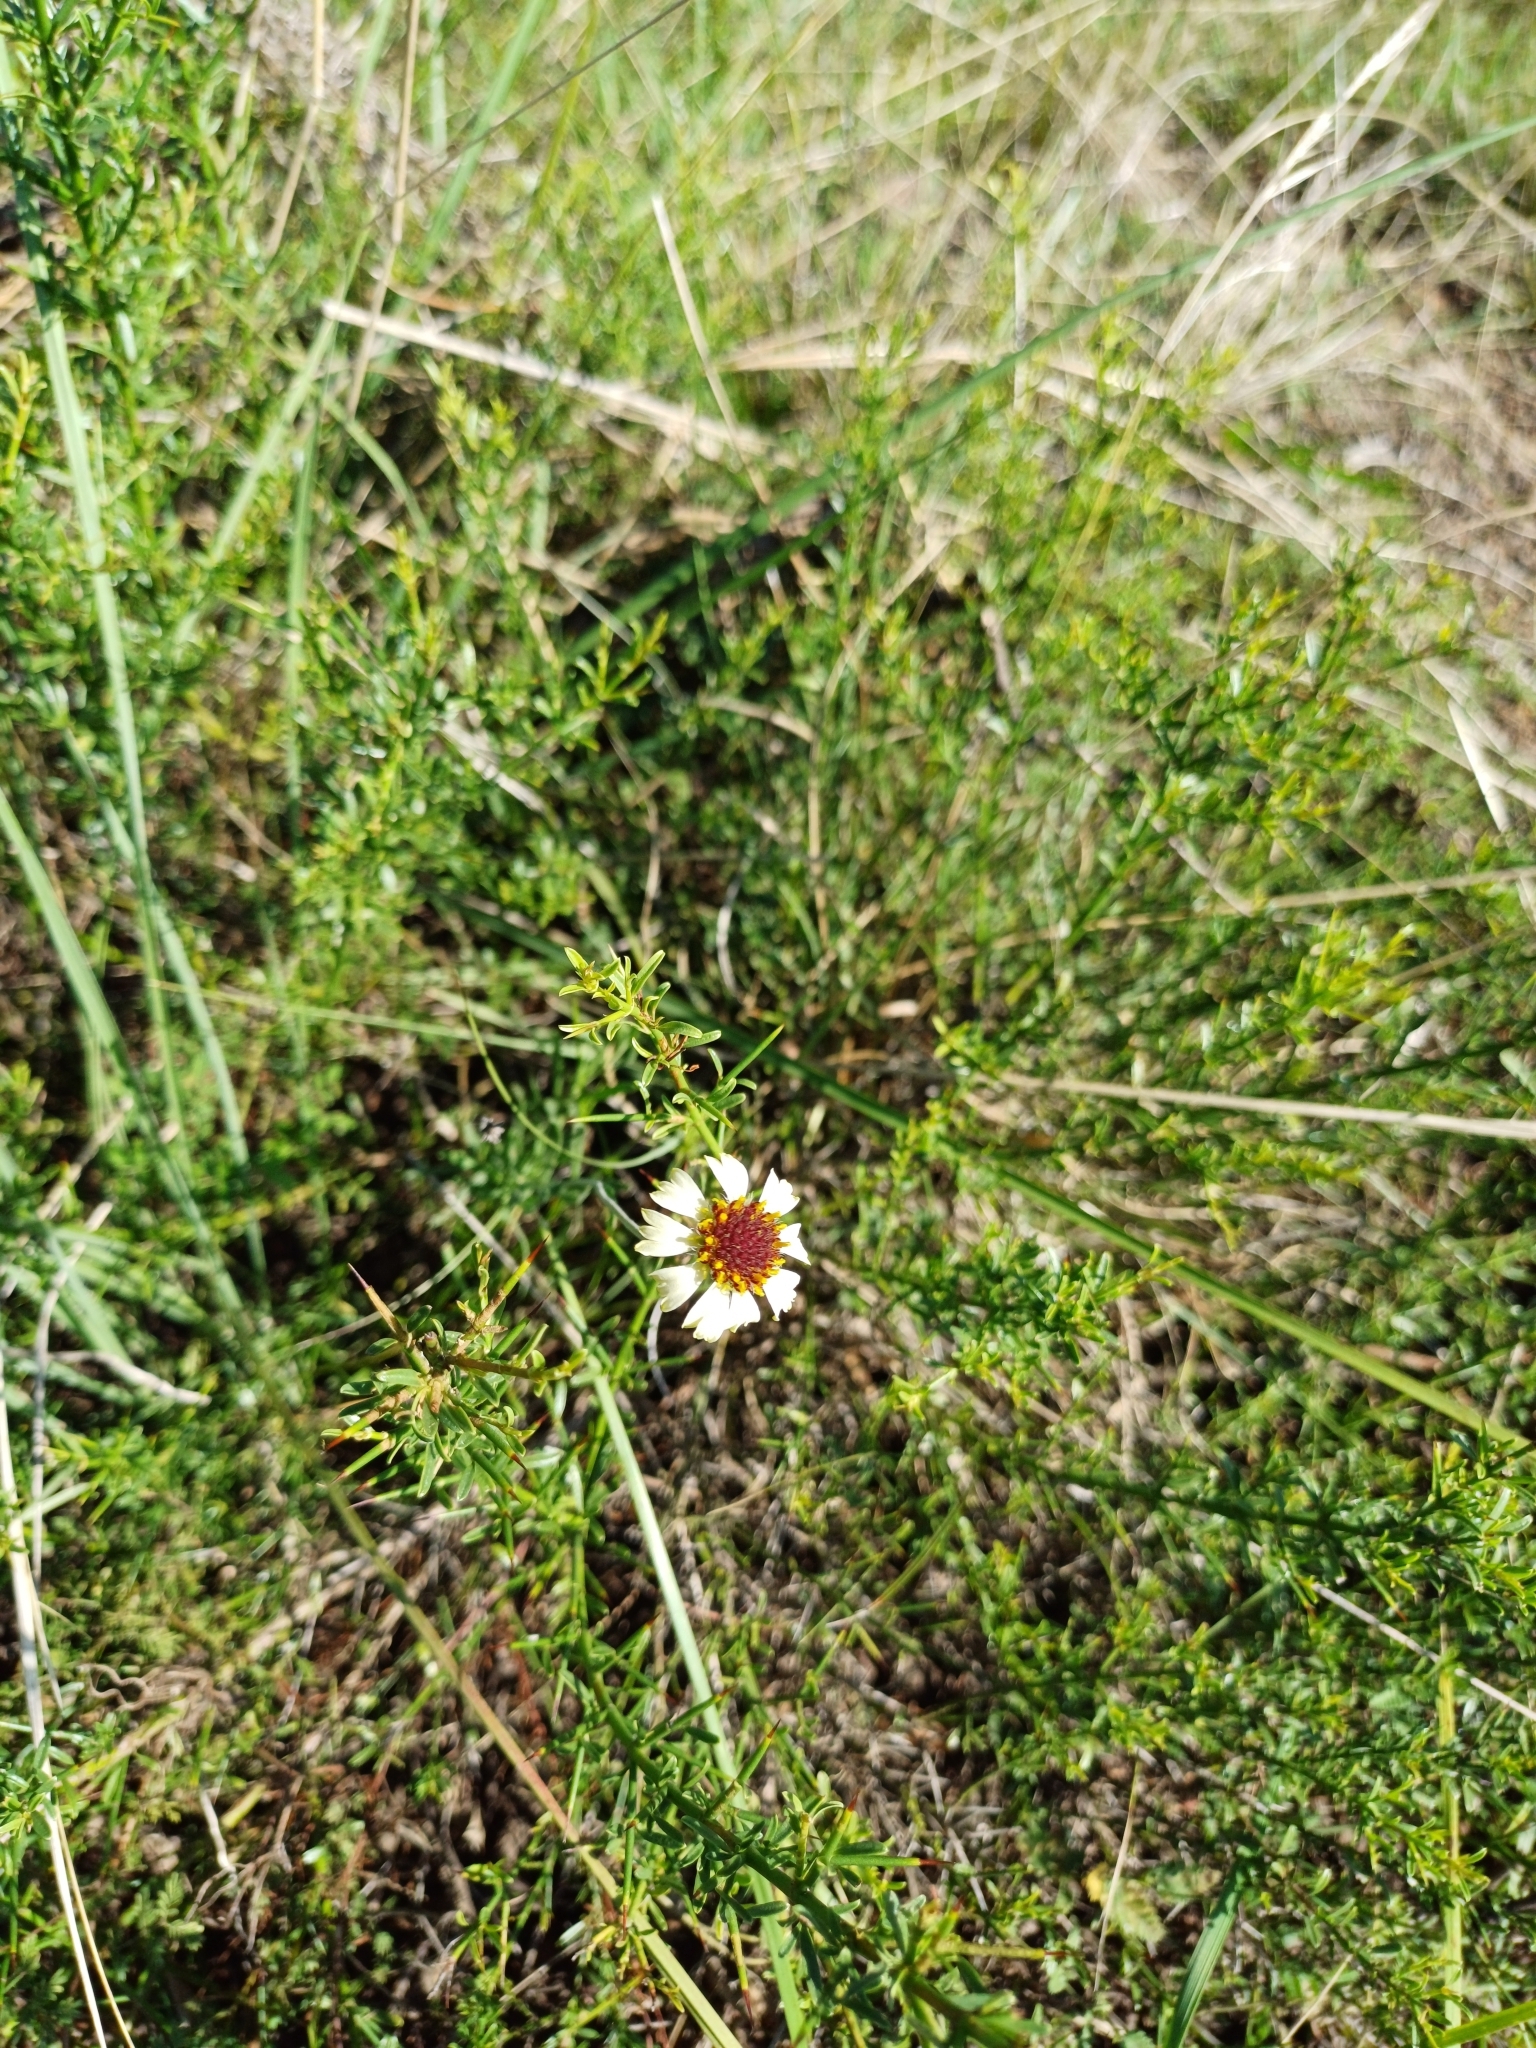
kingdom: Plantae
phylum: Tracheophyta
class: Magnoliopsida
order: Asterales
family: Asteraceae
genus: Helenium
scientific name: Helenium uniflorum
